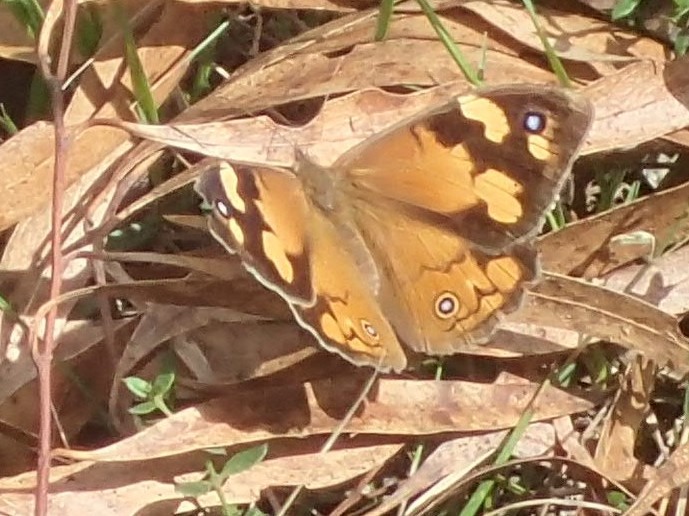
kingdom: Animalia
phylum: Arthropoda
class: Insecta
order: Lepidoptera
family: Nymphalidae
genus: Heteronympha
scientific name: Heteronympha merope
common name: Common brown
